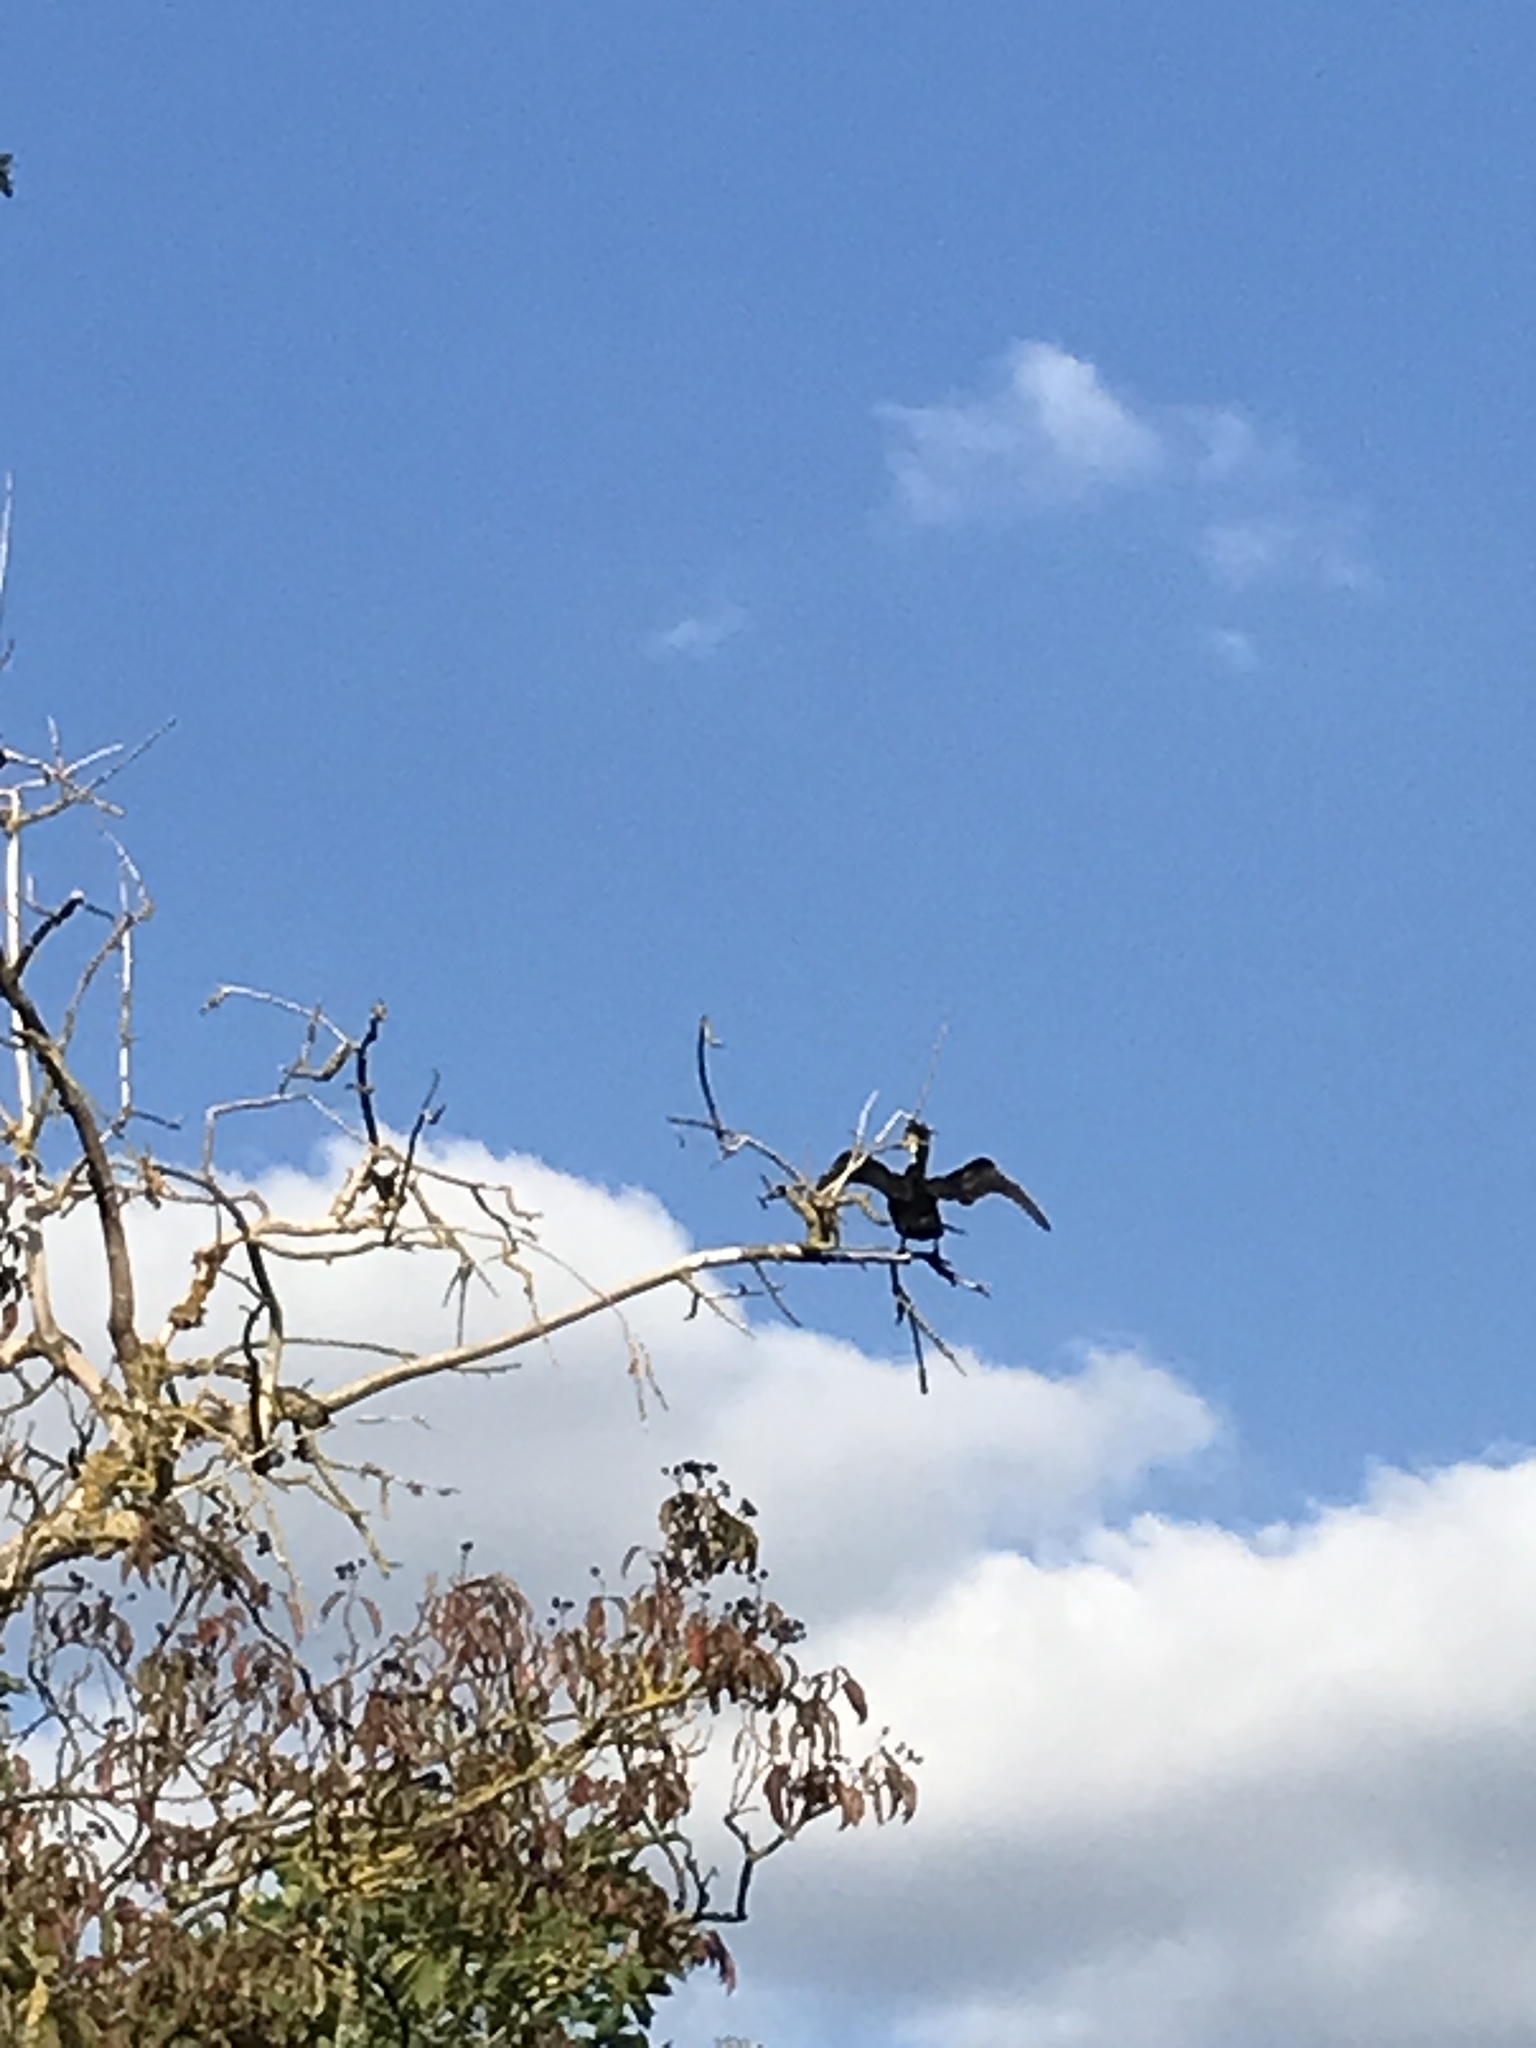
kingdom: Animalia
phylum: Chordata
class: Aves
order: Suliformes
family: Phalacrocoracidae
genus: Phalacrocorax
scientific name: Phalacrocorax carbo
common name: Great cormorant
